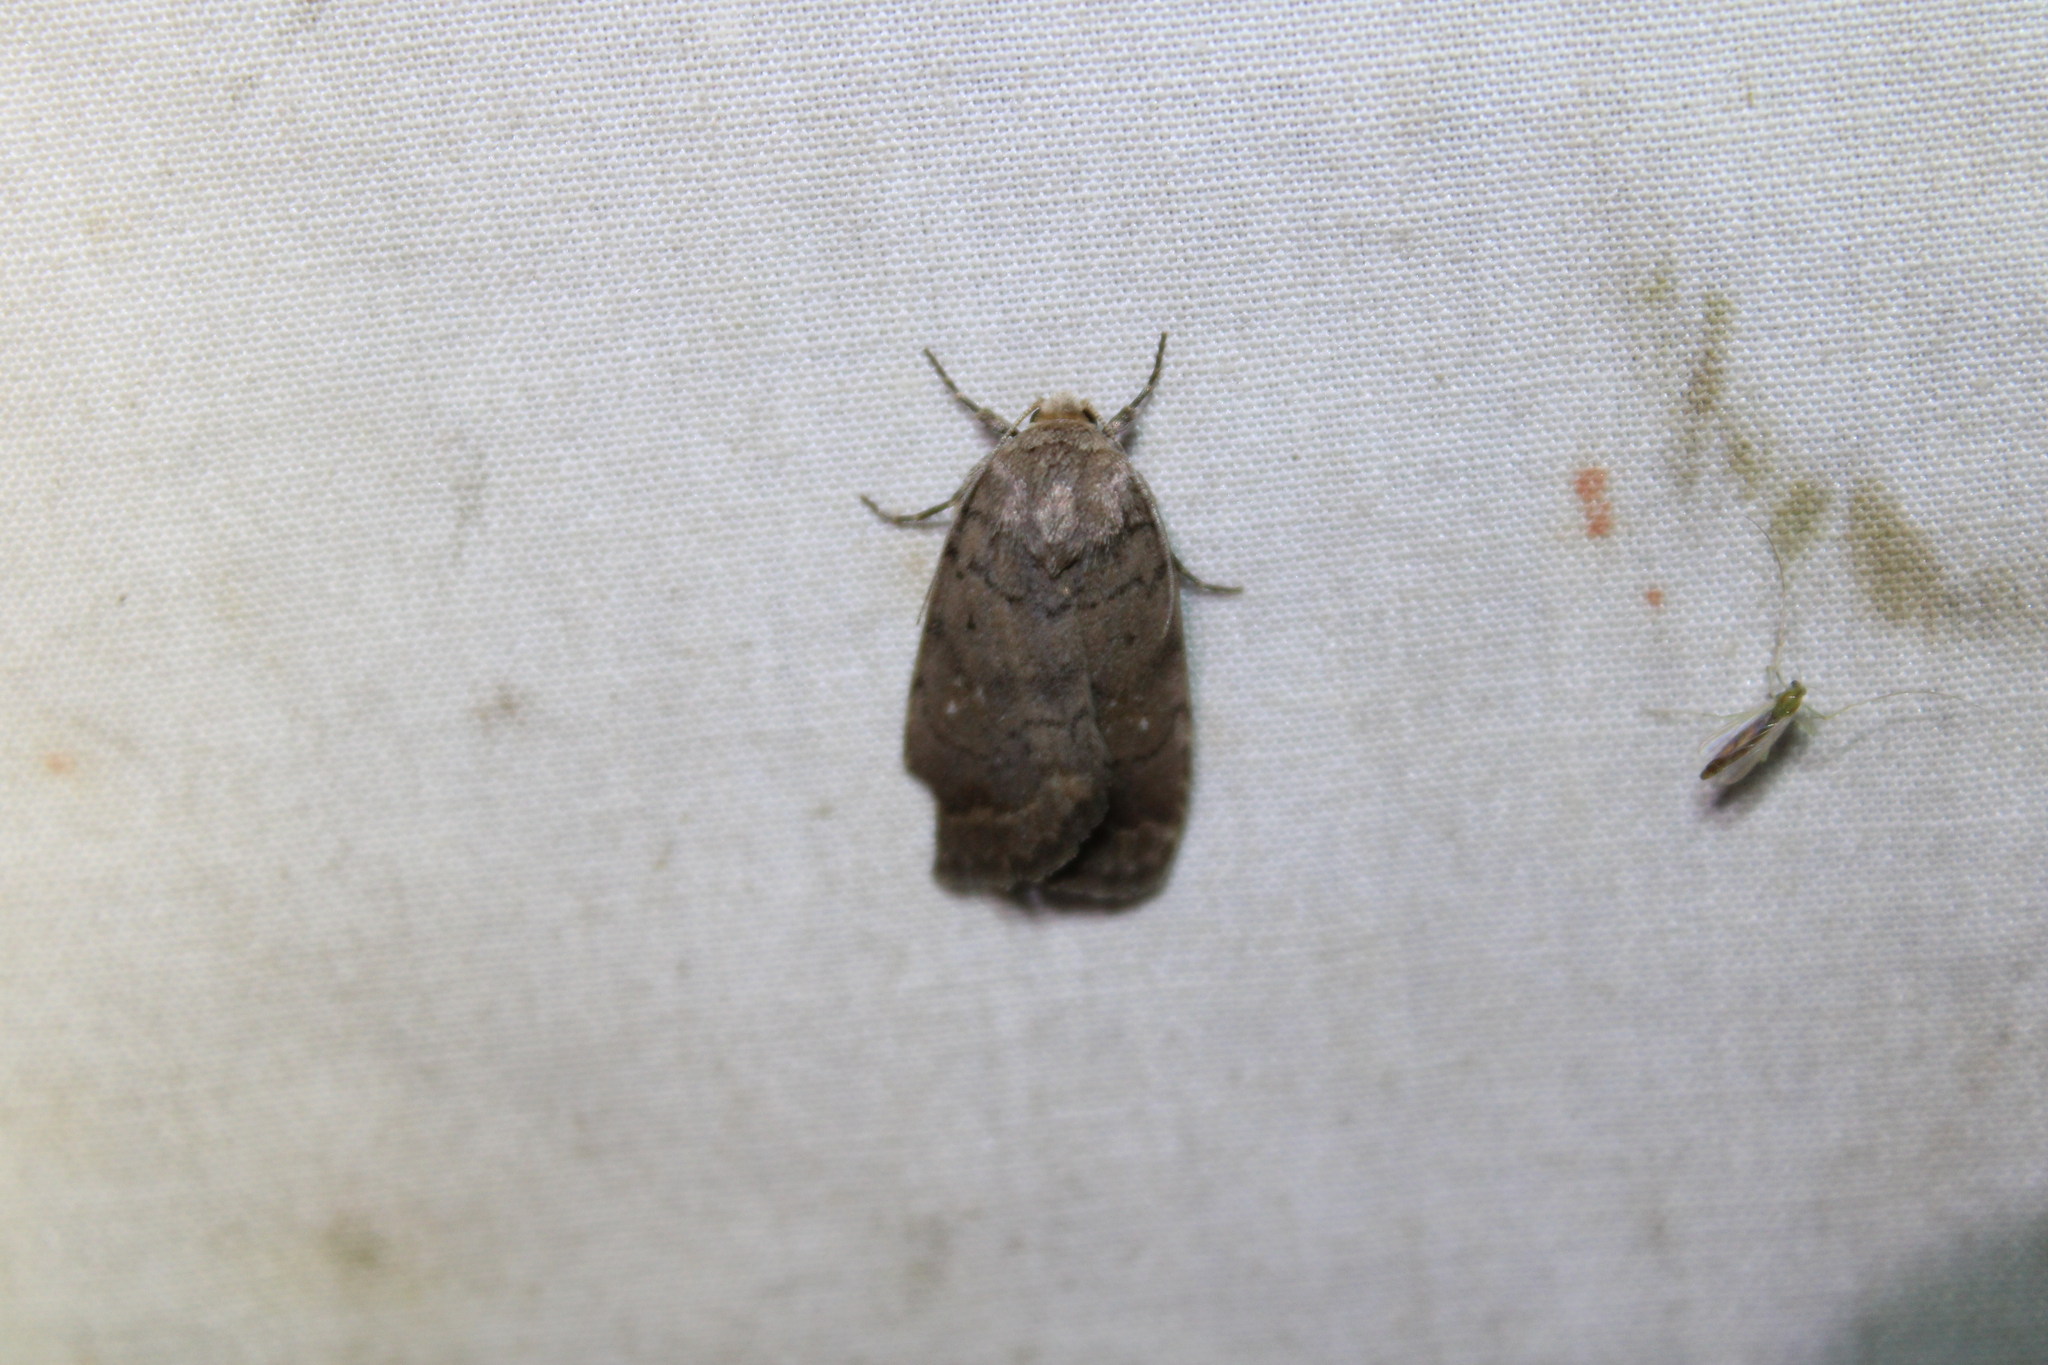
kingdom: Animalia
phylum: Arthropoda
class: Insecta
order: Lepidoptera
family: Noctuidae
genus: Athetis
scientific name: Athetis tarda
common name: Slowpoke moth
